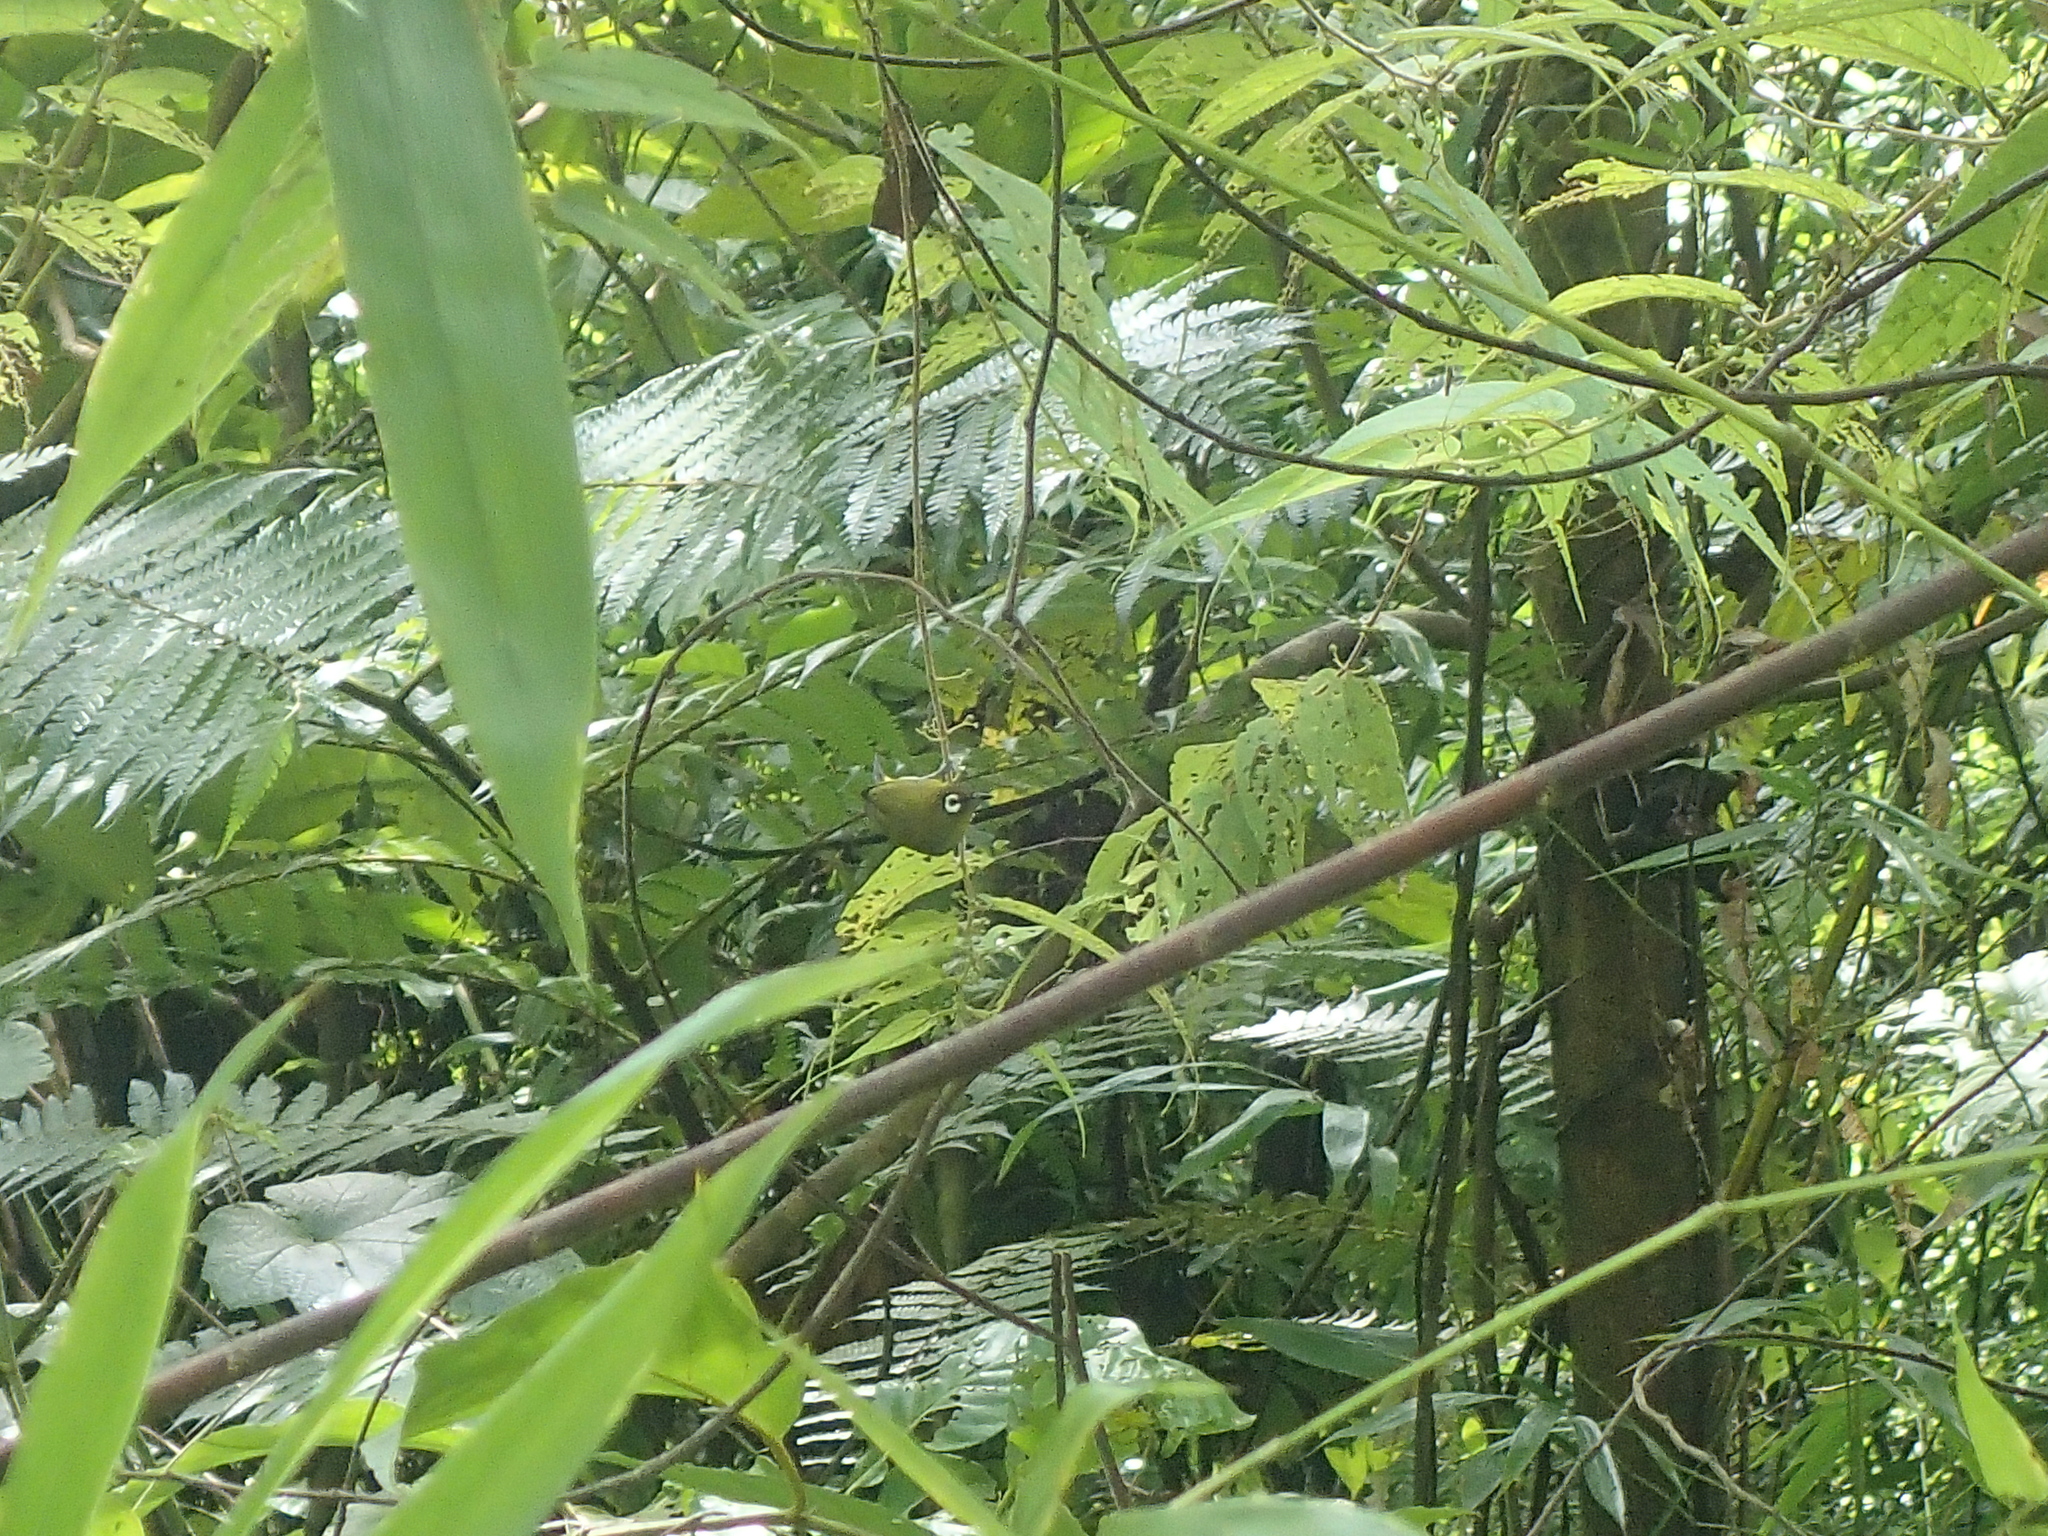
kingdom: Animalia
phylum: Chordata
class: Aves
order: Passeriformes
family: Zosteropidae
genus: Zosterops
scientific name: Zosterops palpebrosus
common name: Oriental white-eye
